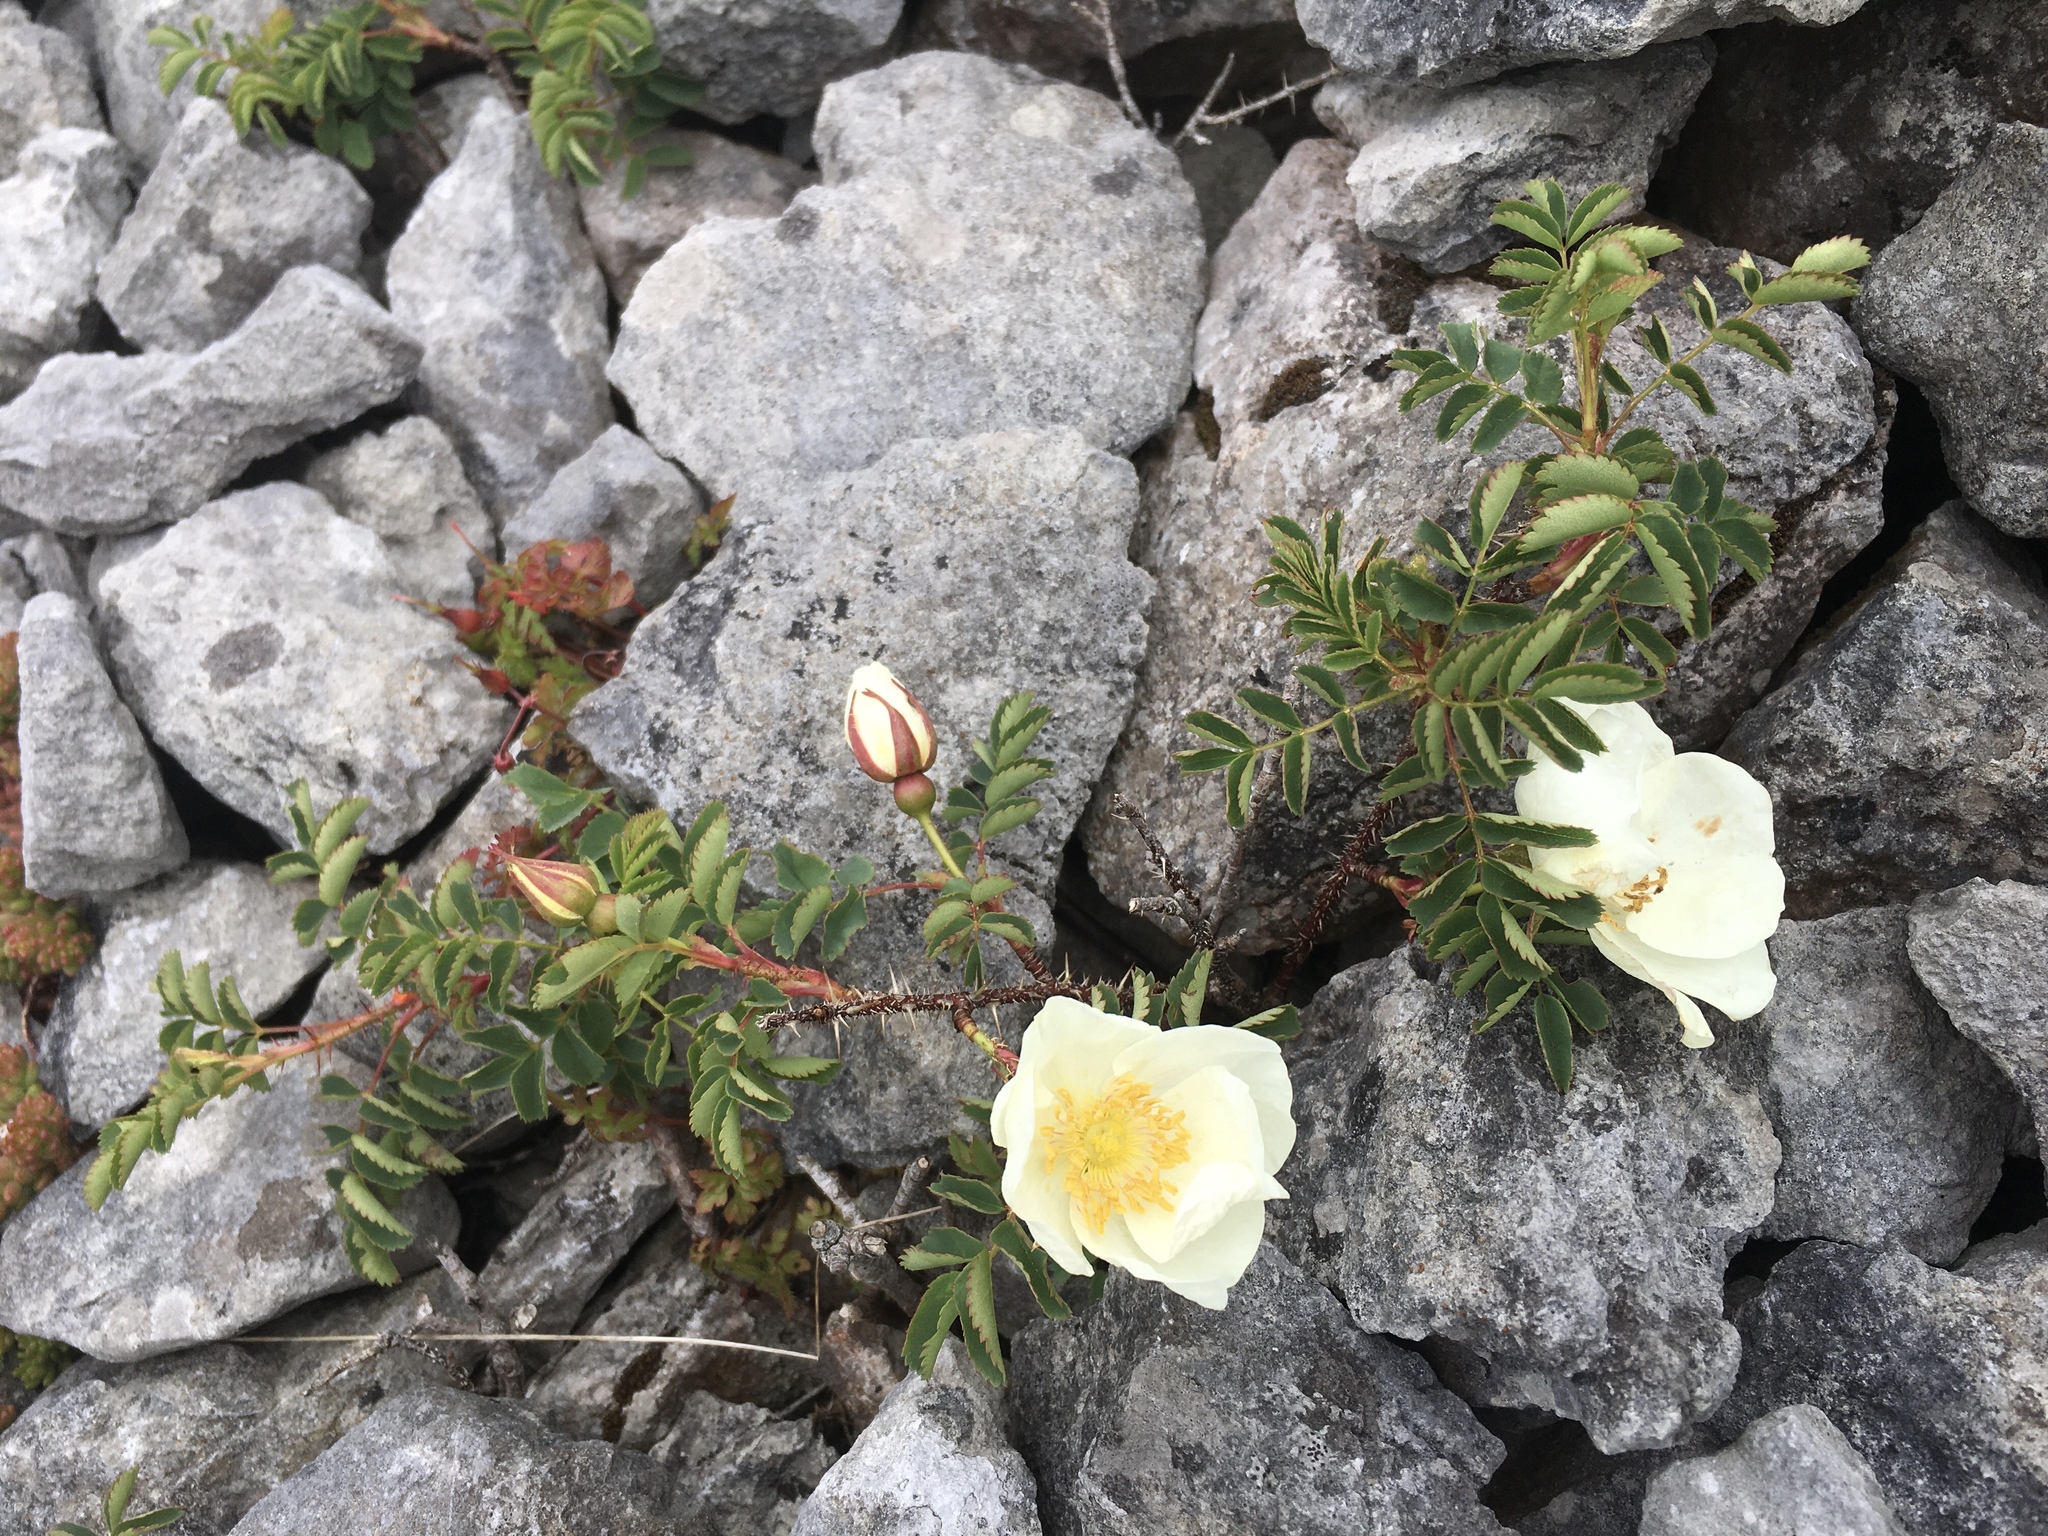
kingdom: Plantae
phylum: Tracheophyta
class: Magnoliopsida
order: Rosales
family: Rosaceae
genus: Rosa
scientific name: Rosa spinosissima
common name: Burnet rose
